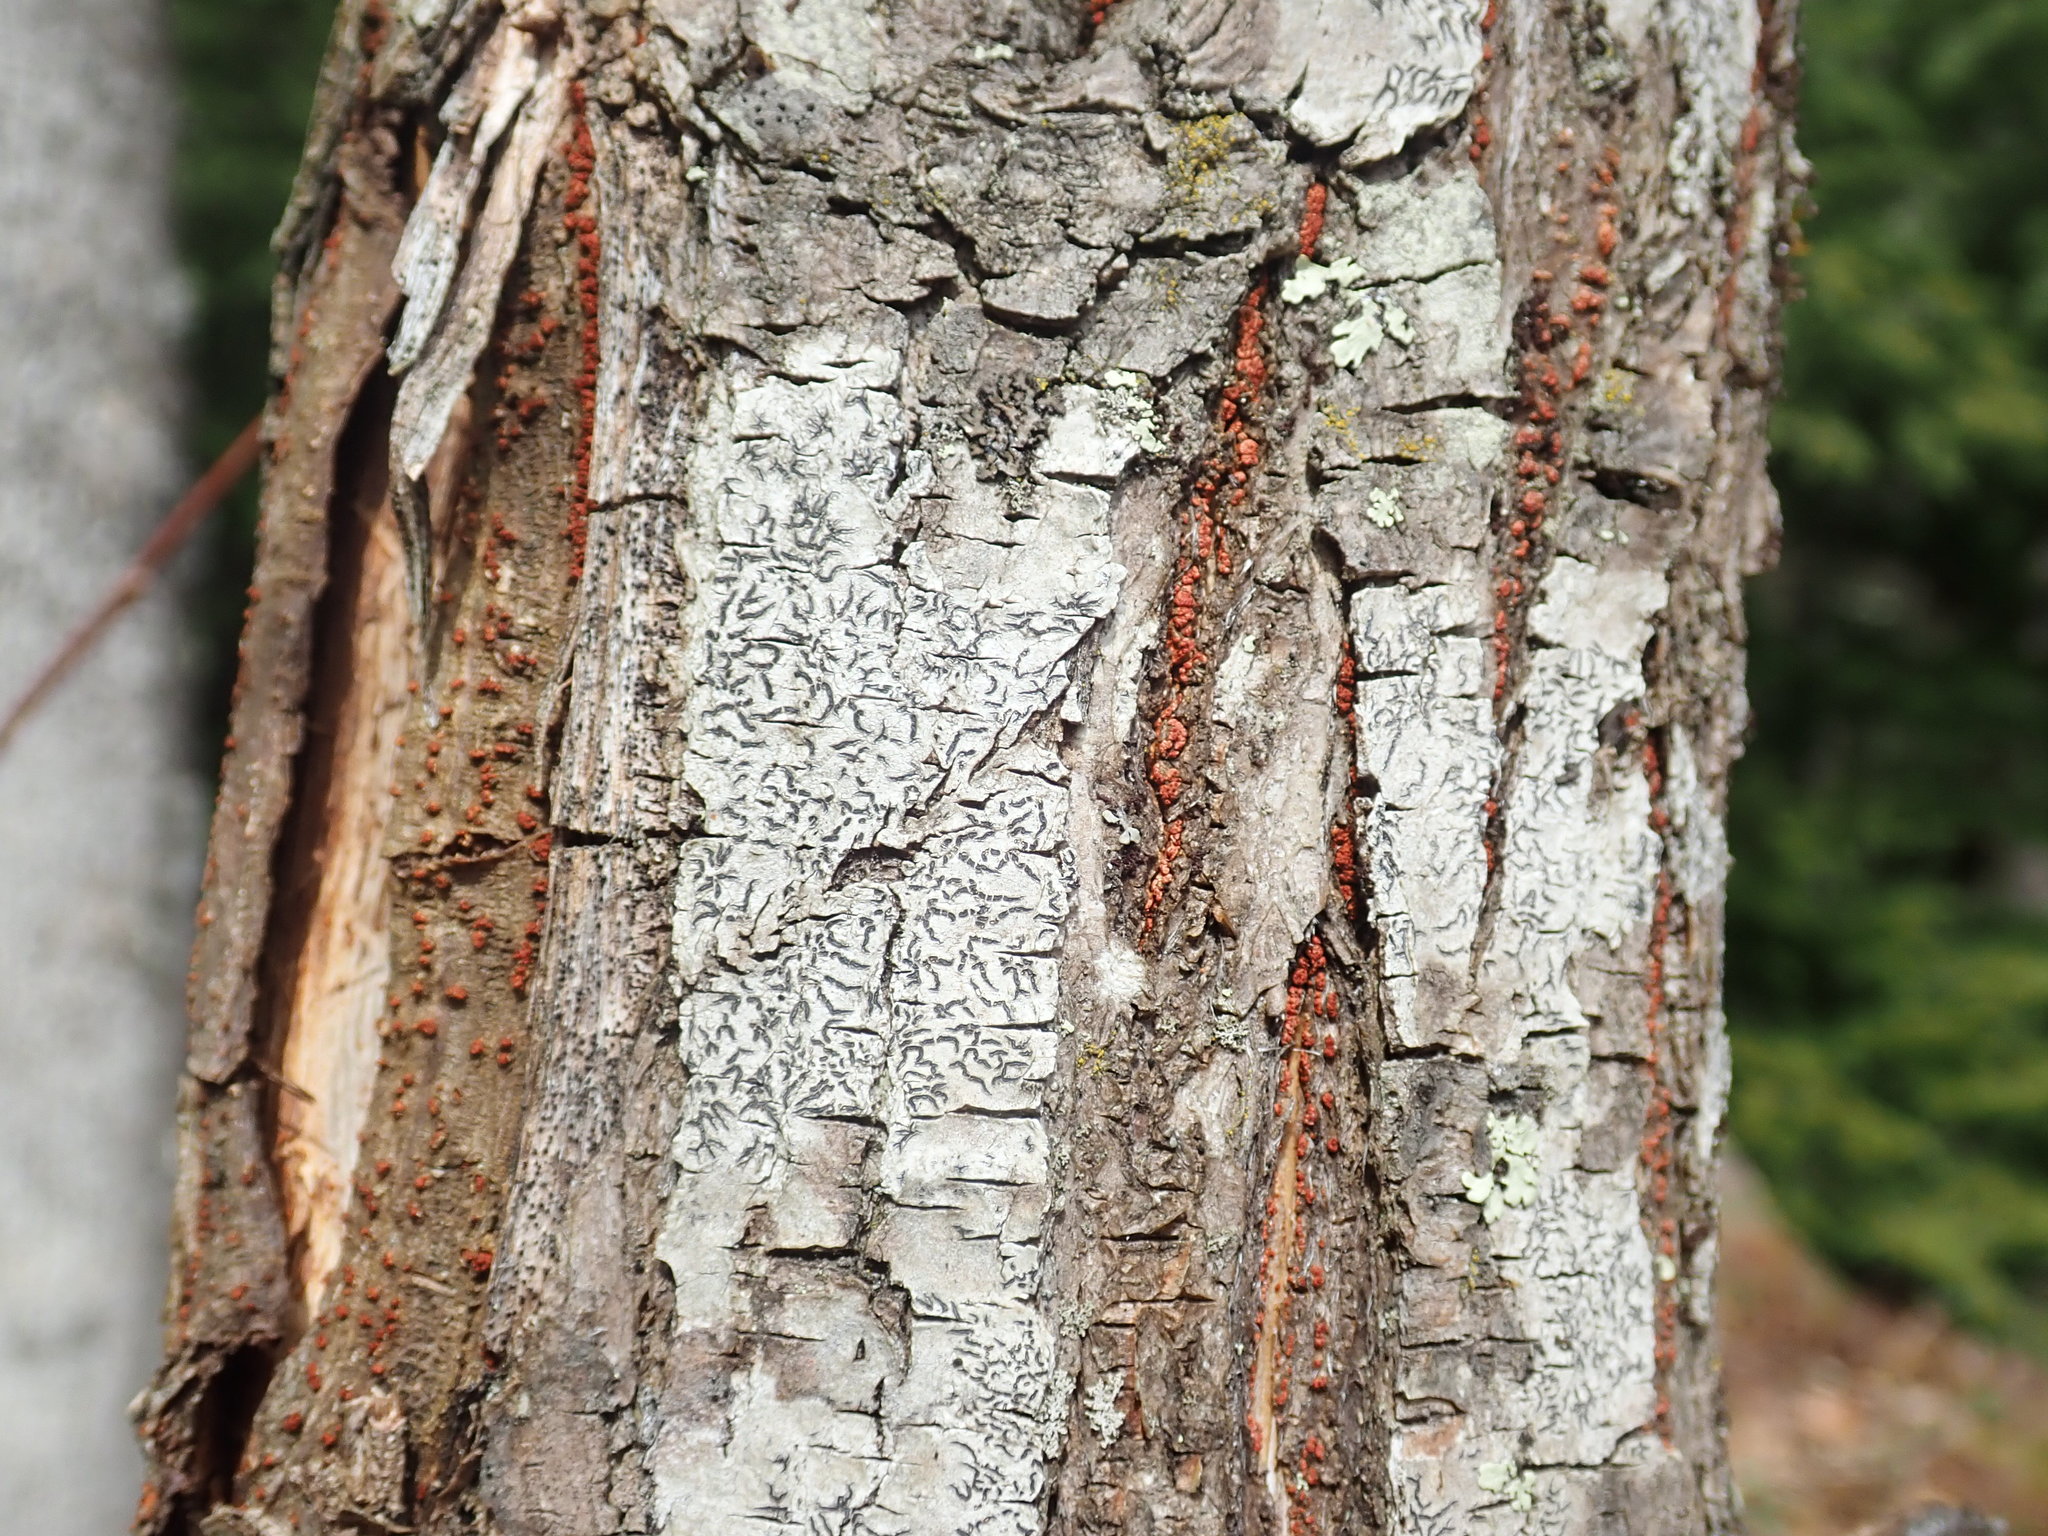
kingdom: Fungi
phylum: Ascomycota
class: Lecanoromycetes
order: Ostropales
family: Graphidaceae
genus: Graphis
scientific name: Graphis scripta
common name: Script lichen
